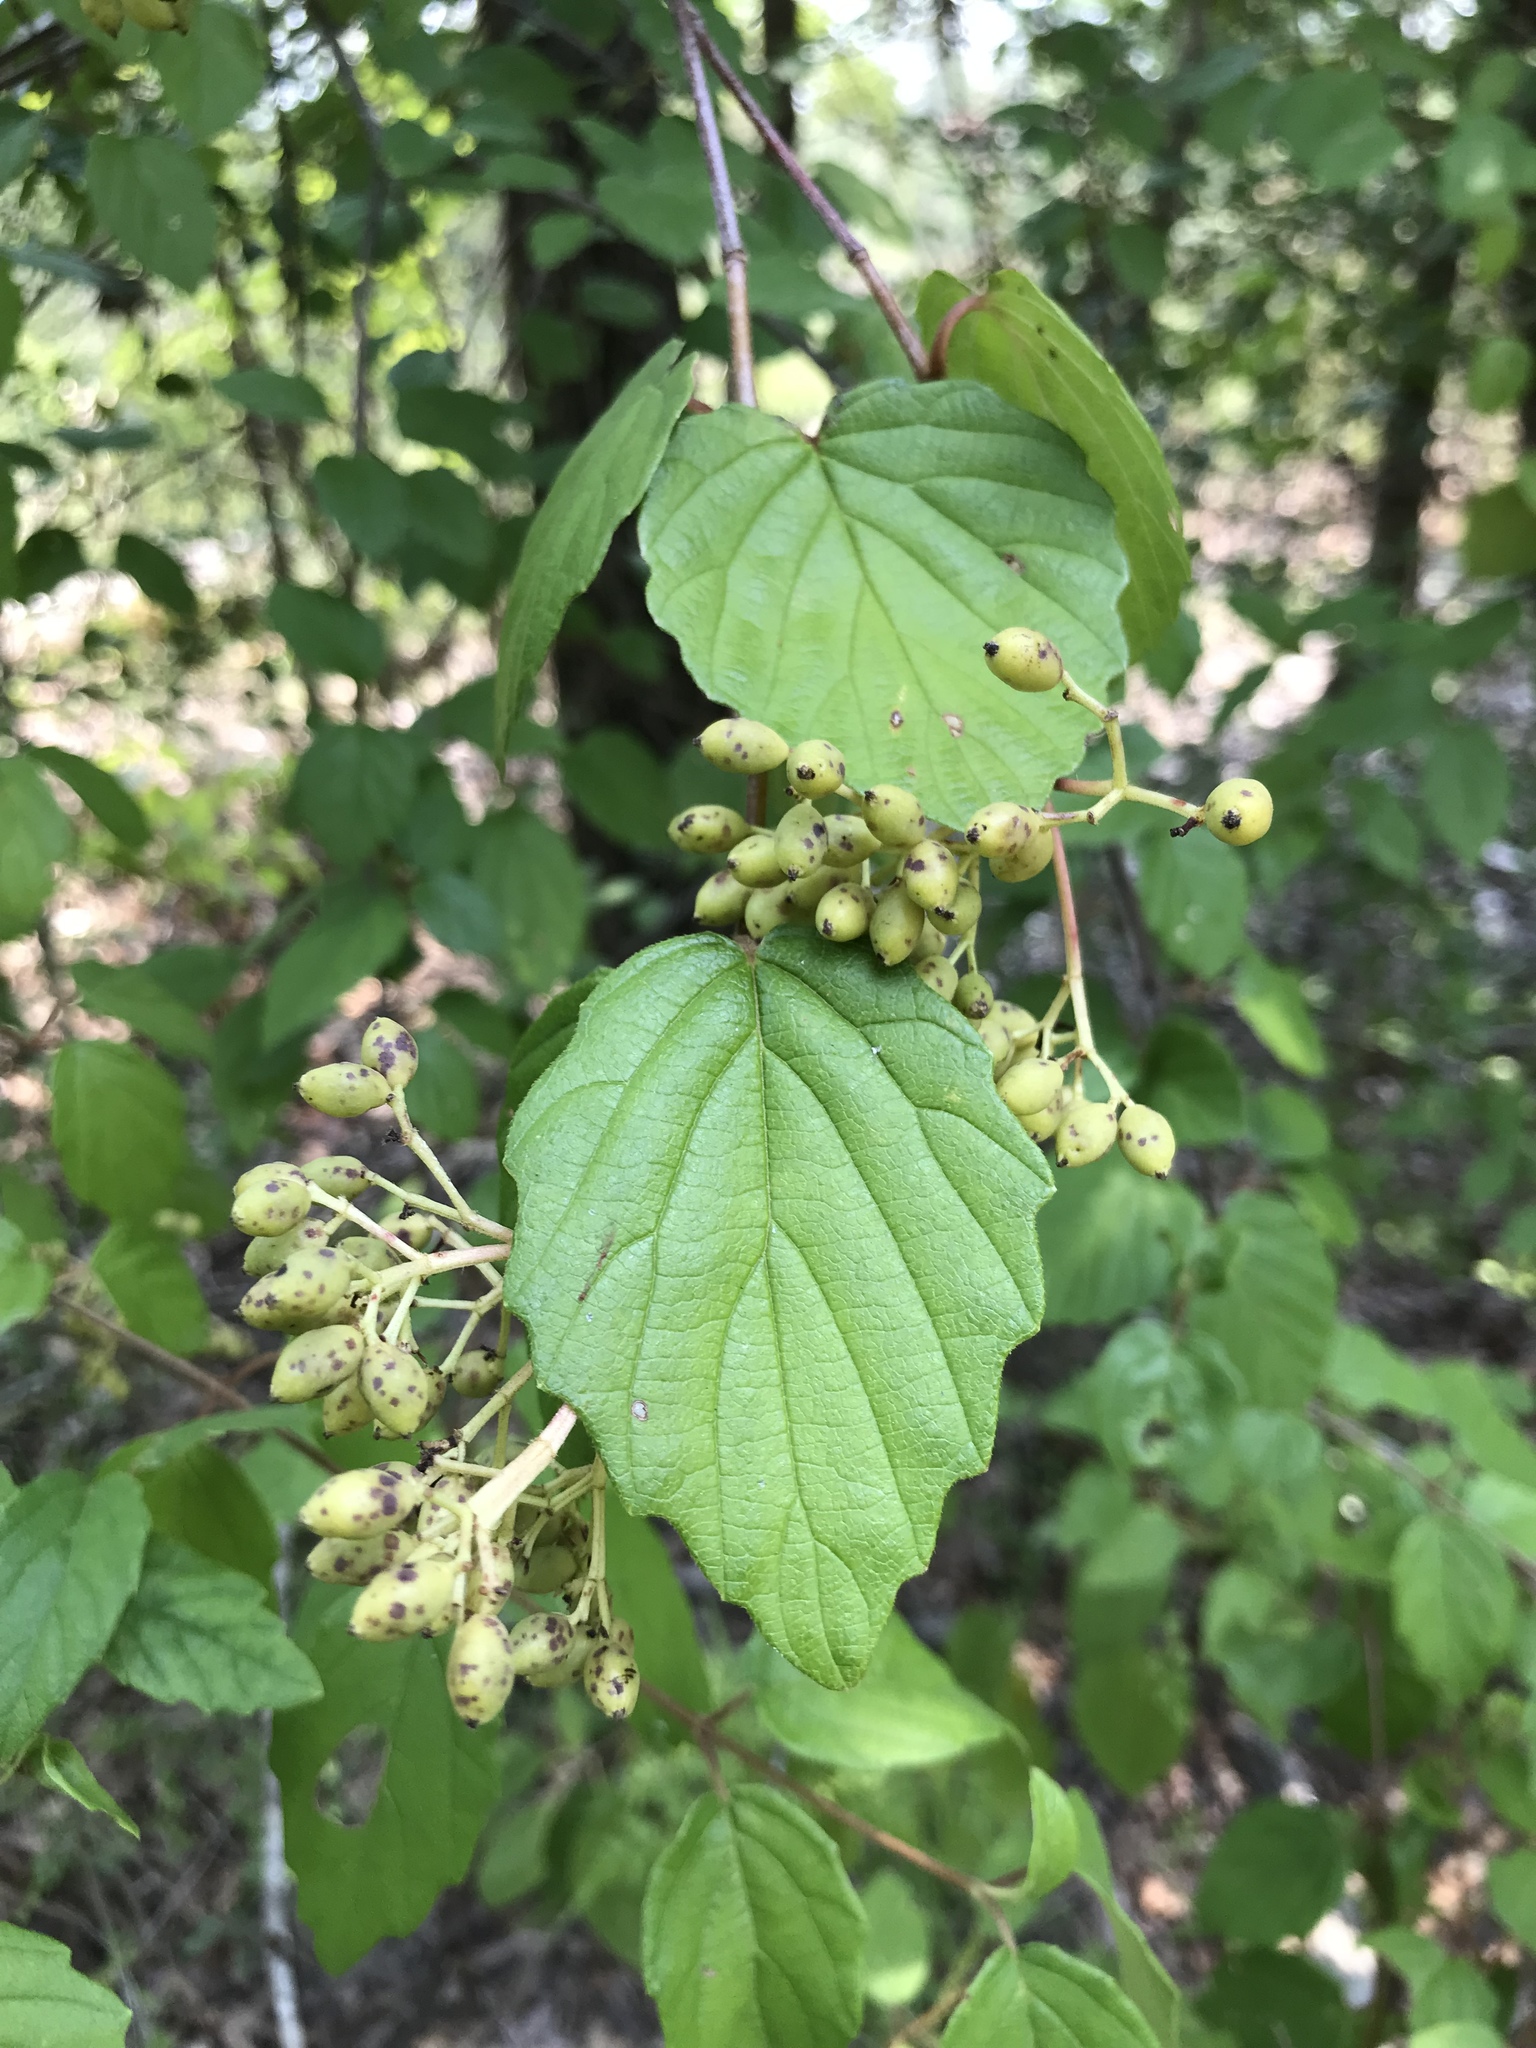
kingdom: Plantae
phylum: Tracheophyta
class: Magnoliopsida
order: Dipsacales
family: Viburnaceae
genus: Viburnum
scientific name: Viburnum scabrellum
